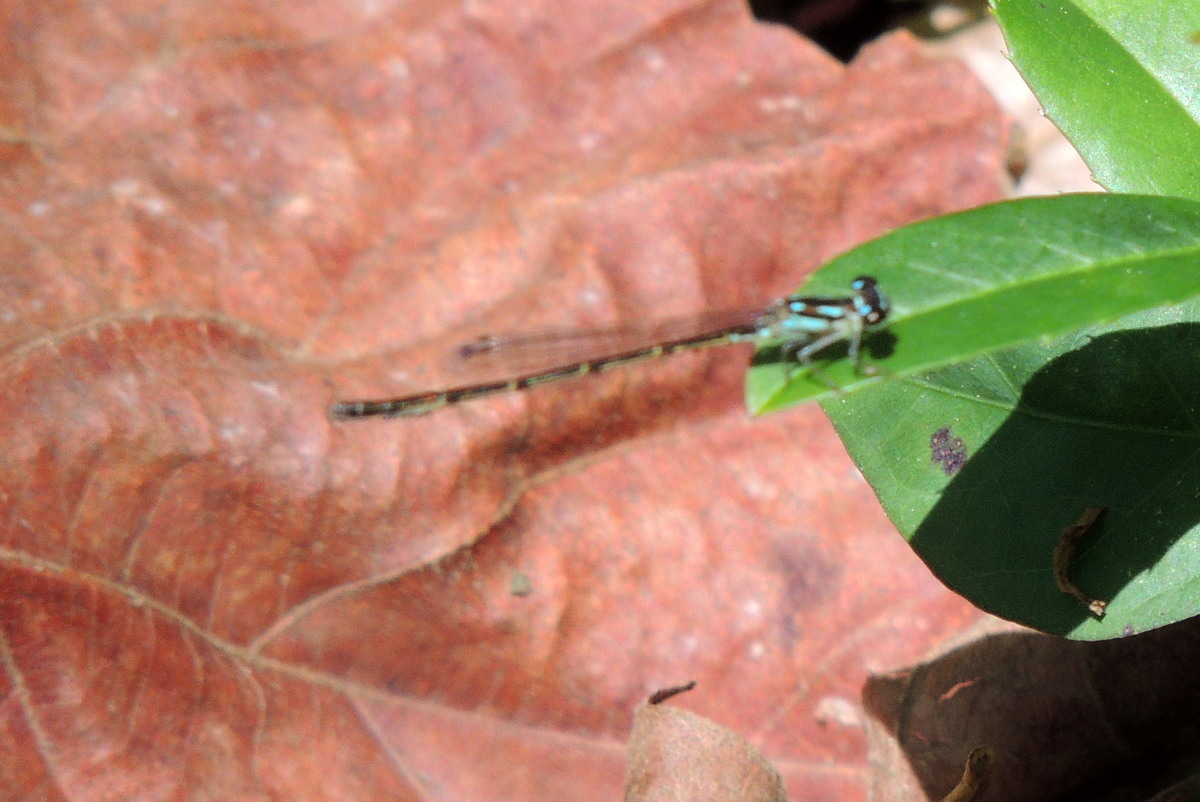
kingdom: Animalia
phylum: Arthropoda
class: Insecta
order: Odonata
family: Coenagrionidae
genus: Ischnura
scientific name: Ischnura posita
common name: Fragile forktail
